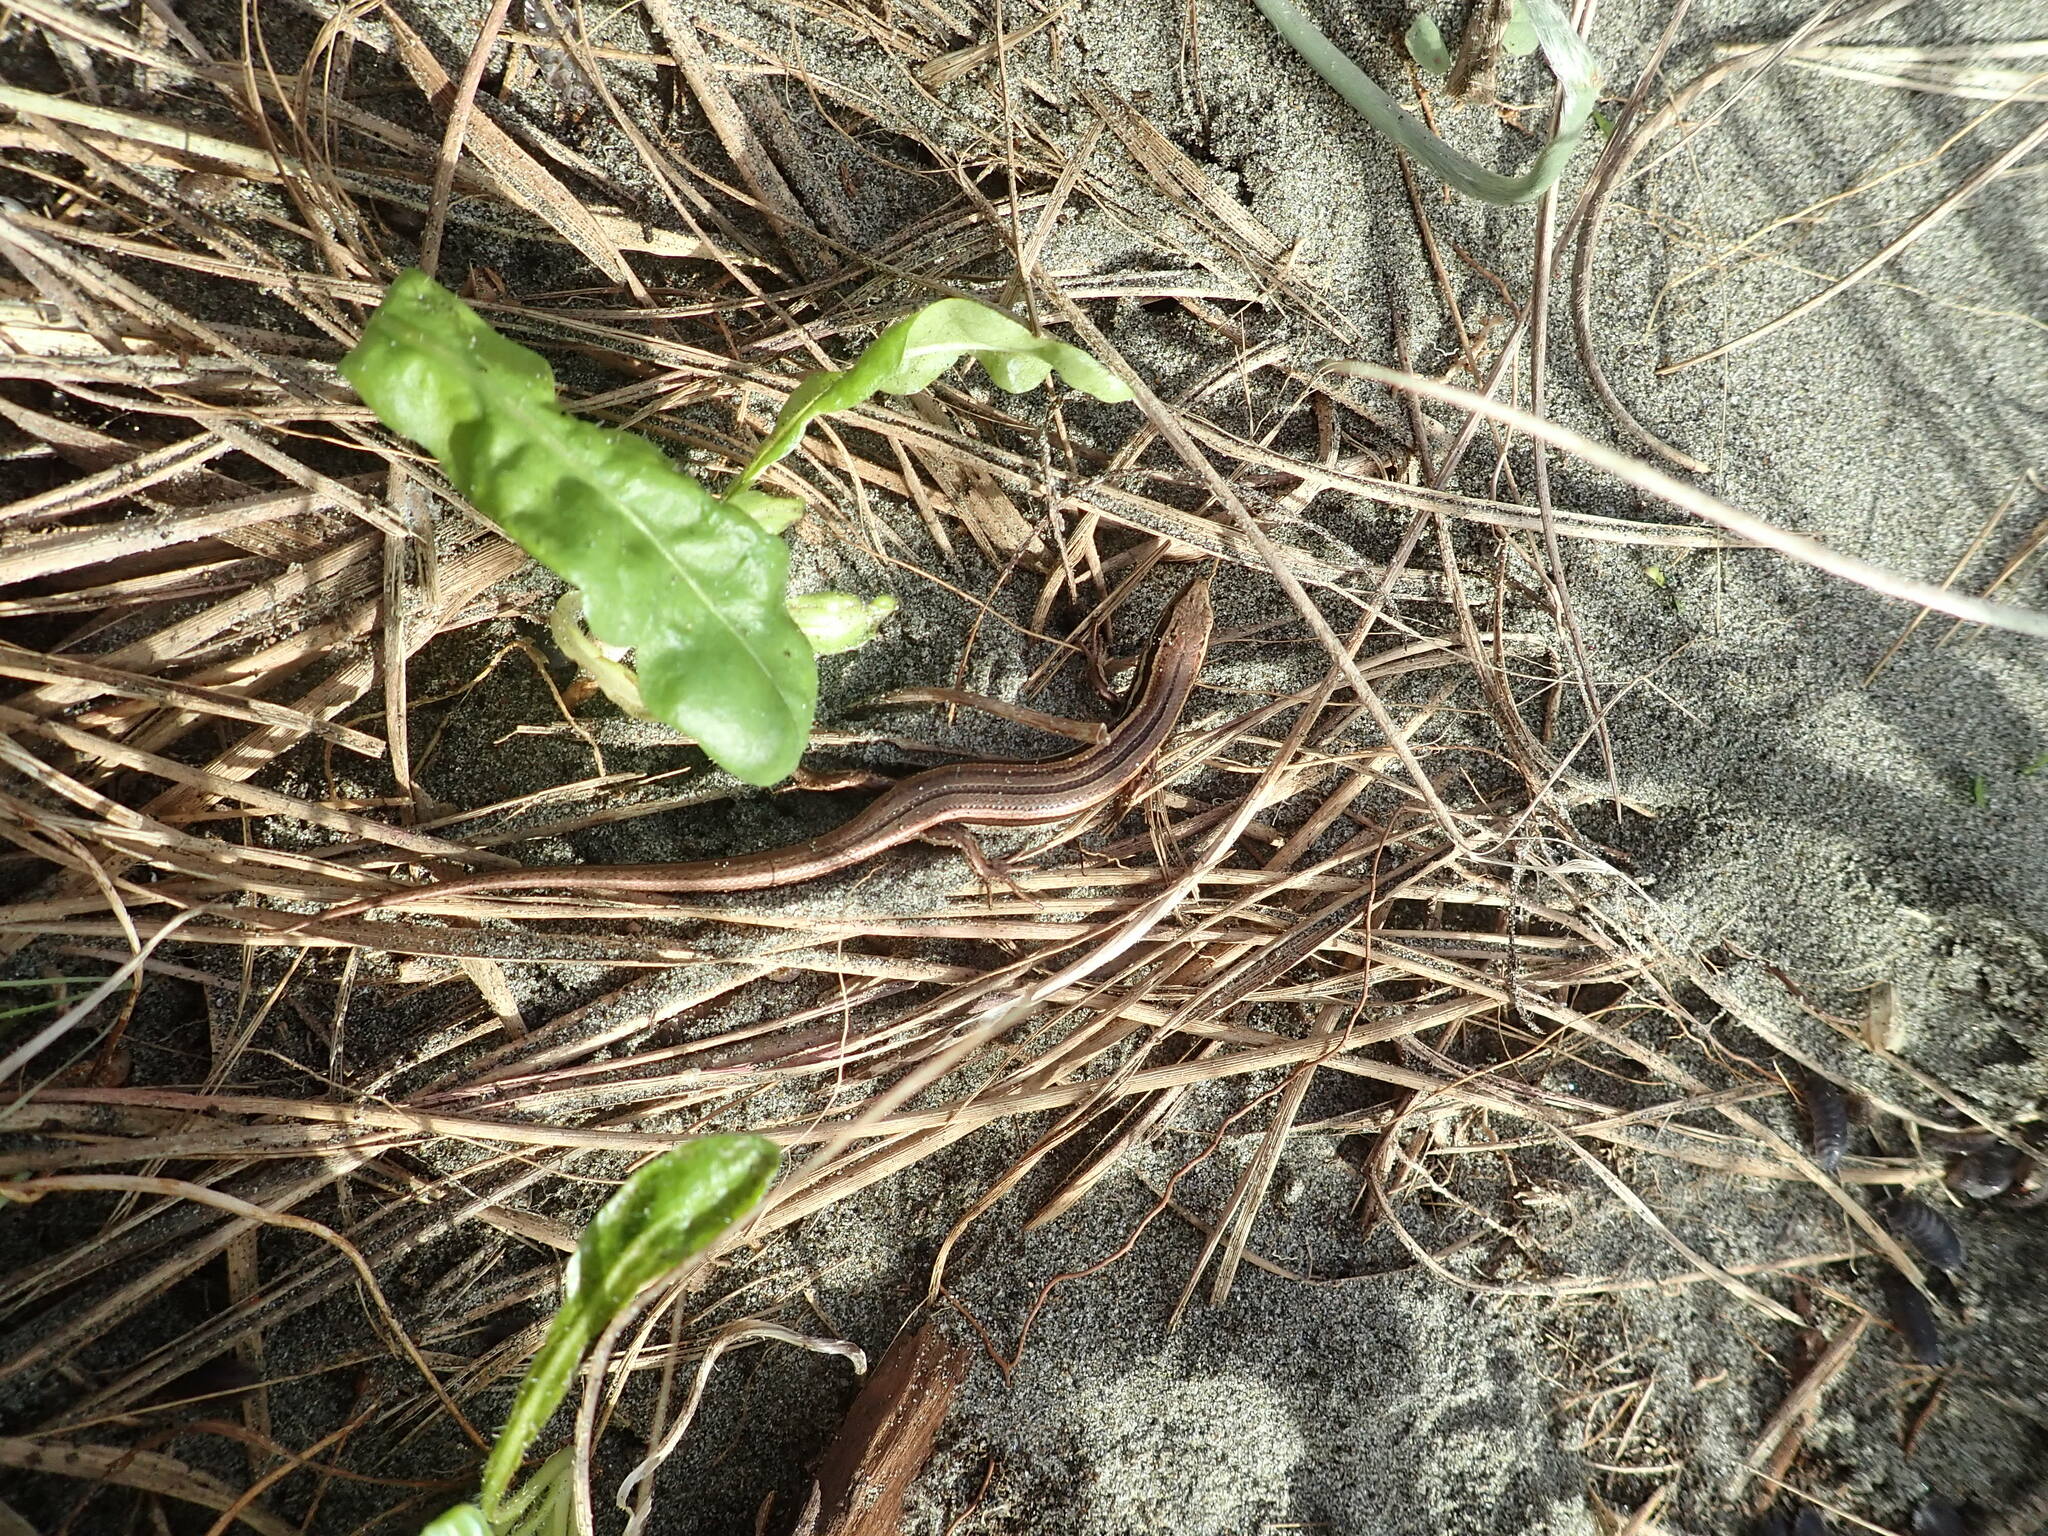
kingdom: Animalia
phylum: Chordata
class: Squamata
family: Scincidae
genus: Oligosoma
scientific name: Oligosoma polychroma
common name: Common new zealand skink
